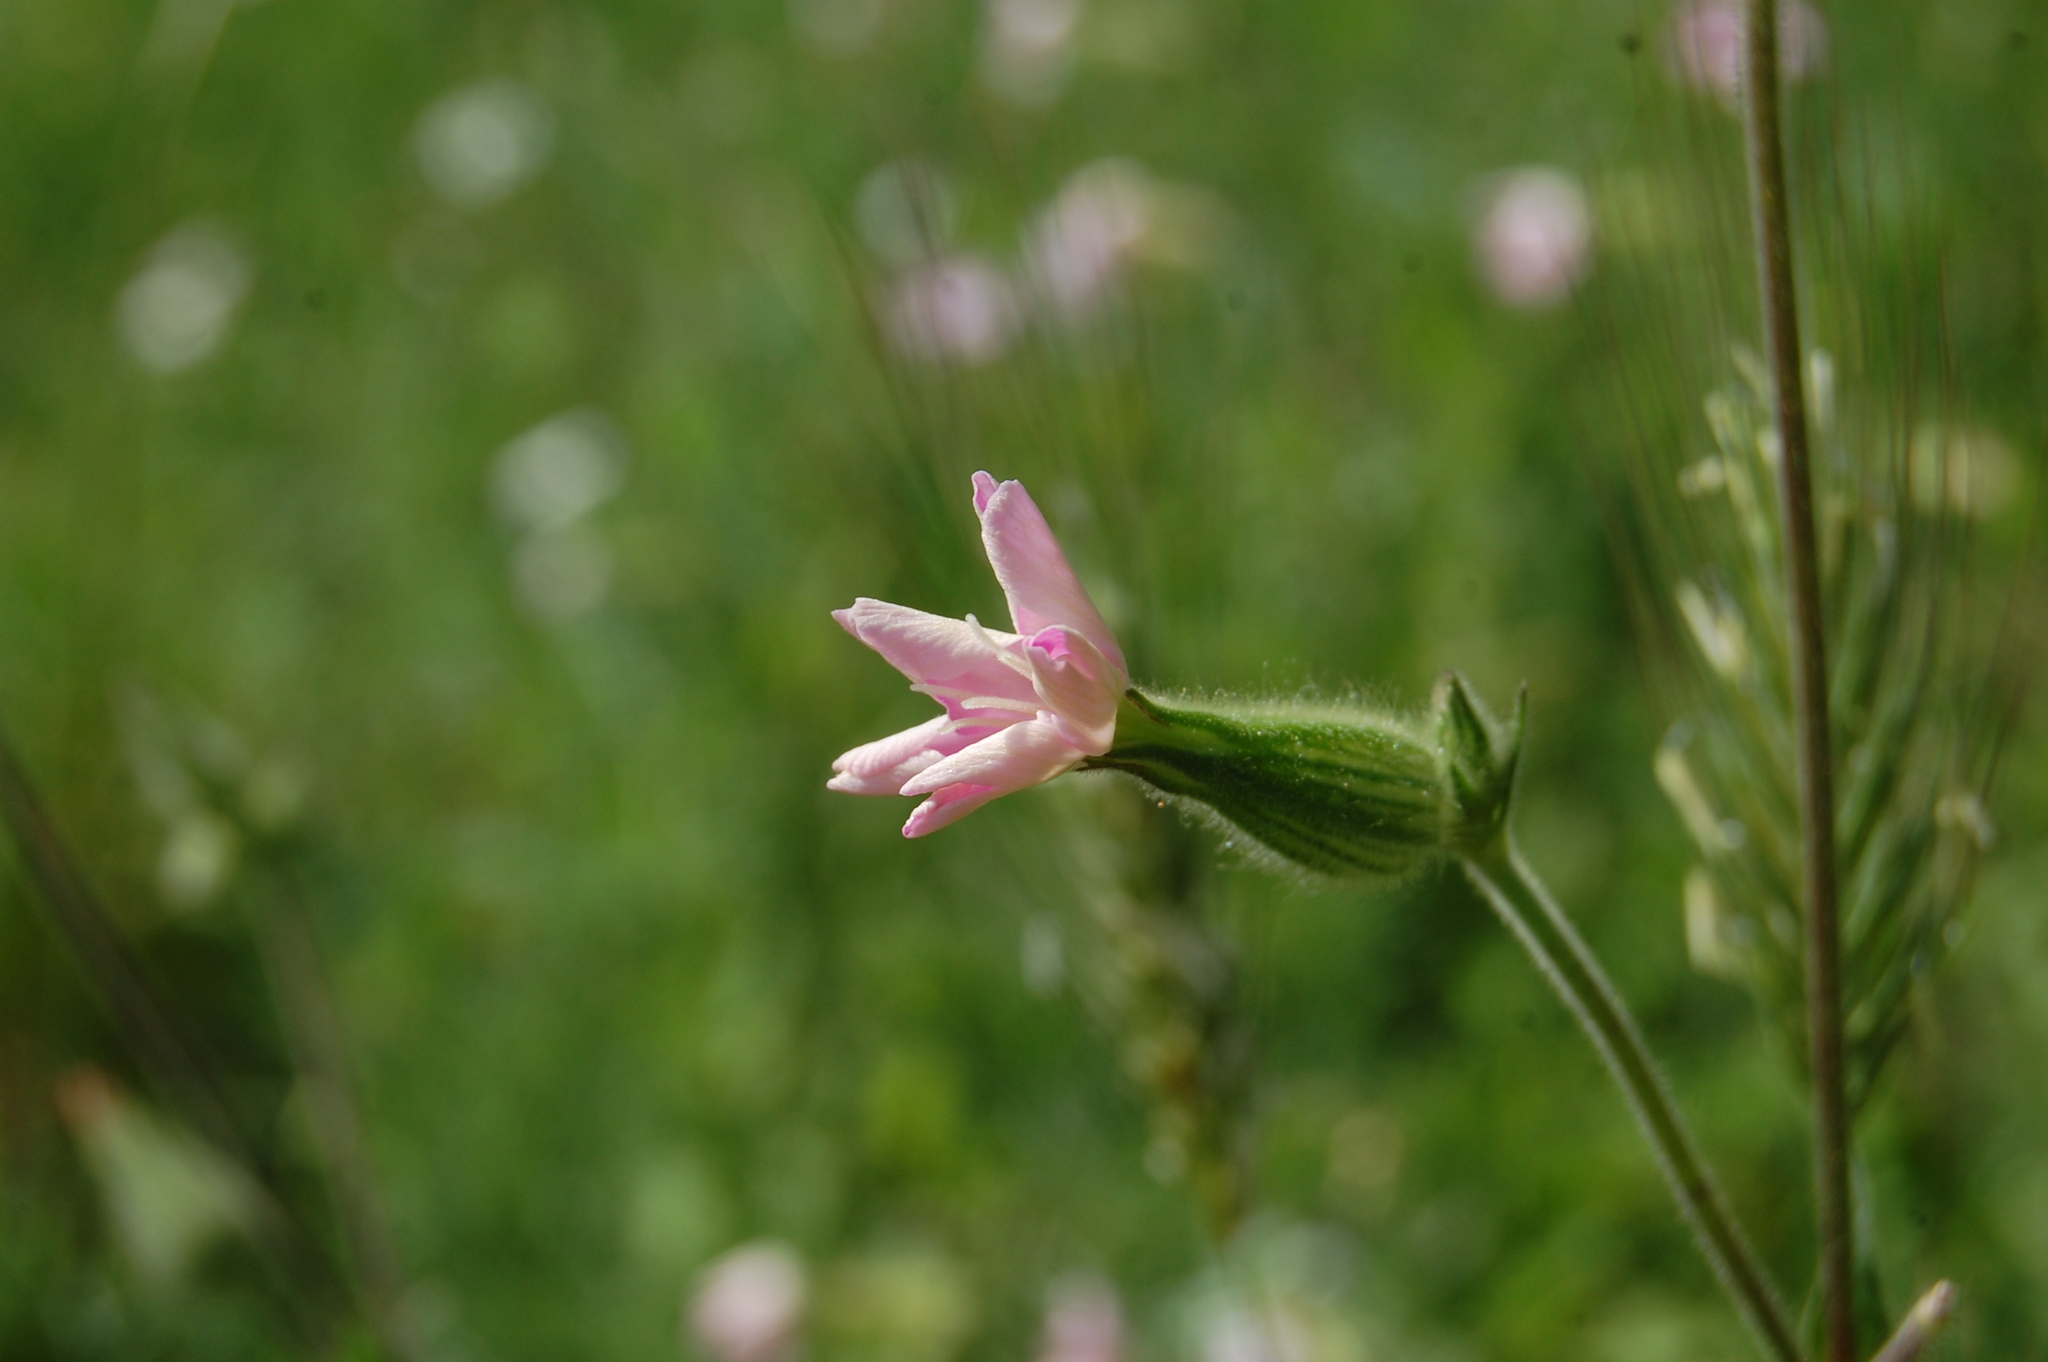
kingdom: Plantae
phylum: Tracheophyta
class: Magnoliopsida
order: Caryophyllales
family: Caryophyllaceae
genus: Silene
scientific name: Silene latifolia
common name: White campion
